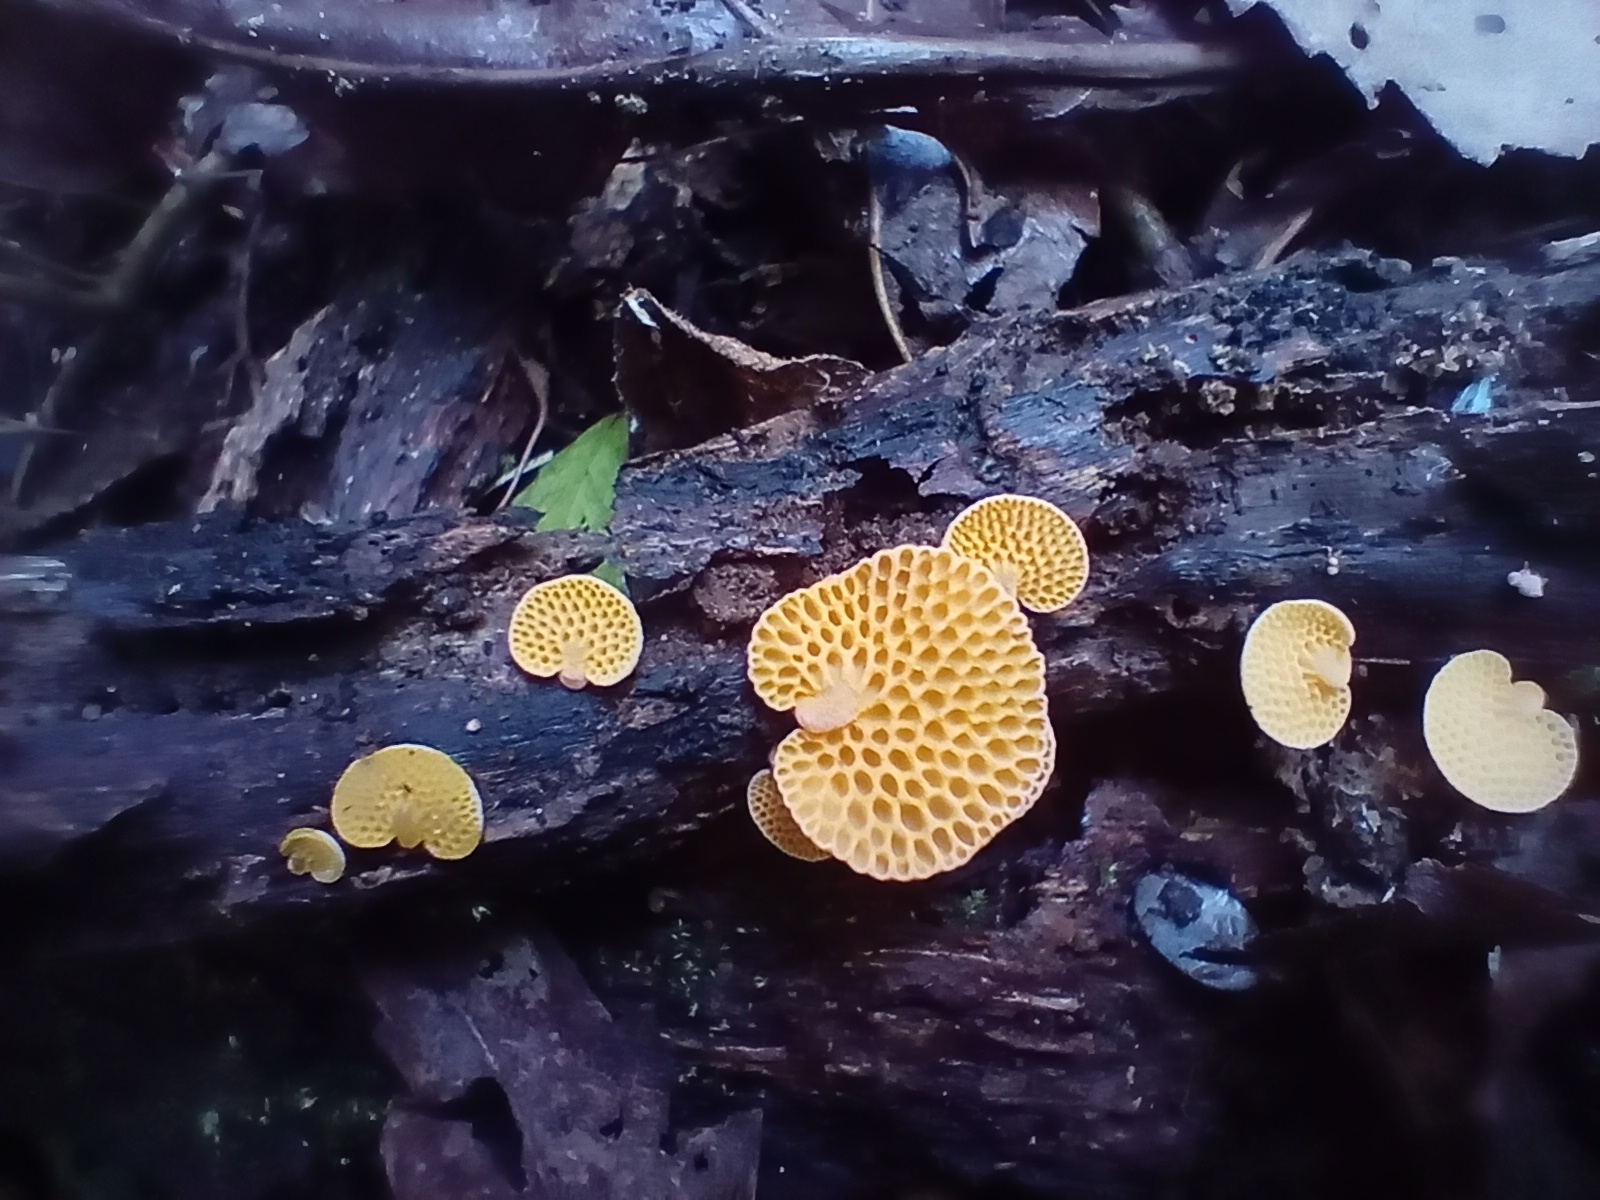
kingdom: Fungi
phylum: Basidiomycota
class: Agaricomycetes
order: Agaricales
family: Mycenaceae
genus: Favolaschia
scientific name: Favolaschia claudopus
